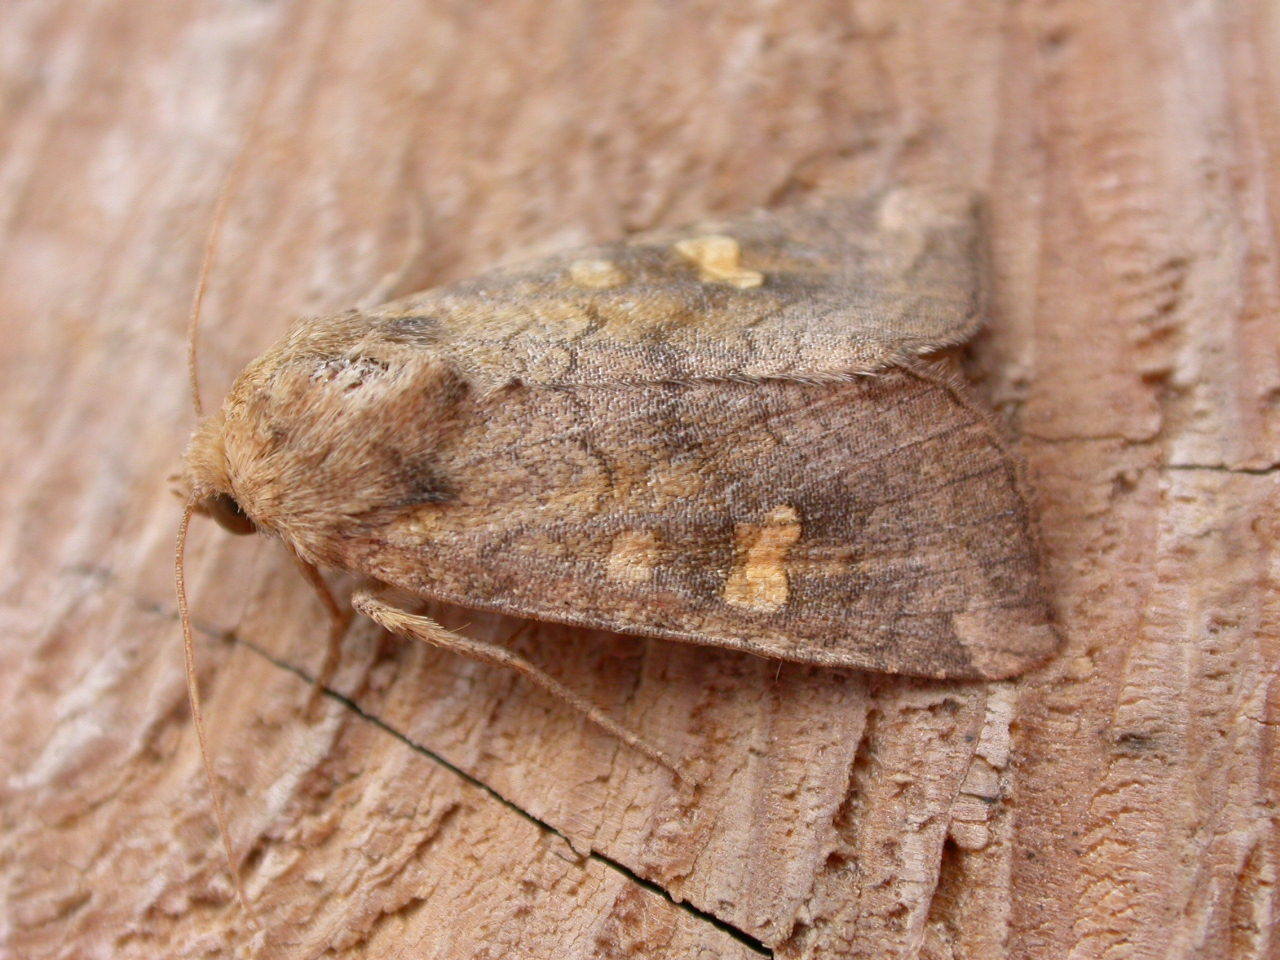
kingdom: Animalia
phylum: Arthropoda
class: Insecta
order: Lepidoptera
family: Noctuidae
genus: Amphipoea
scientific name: Amphipoea
